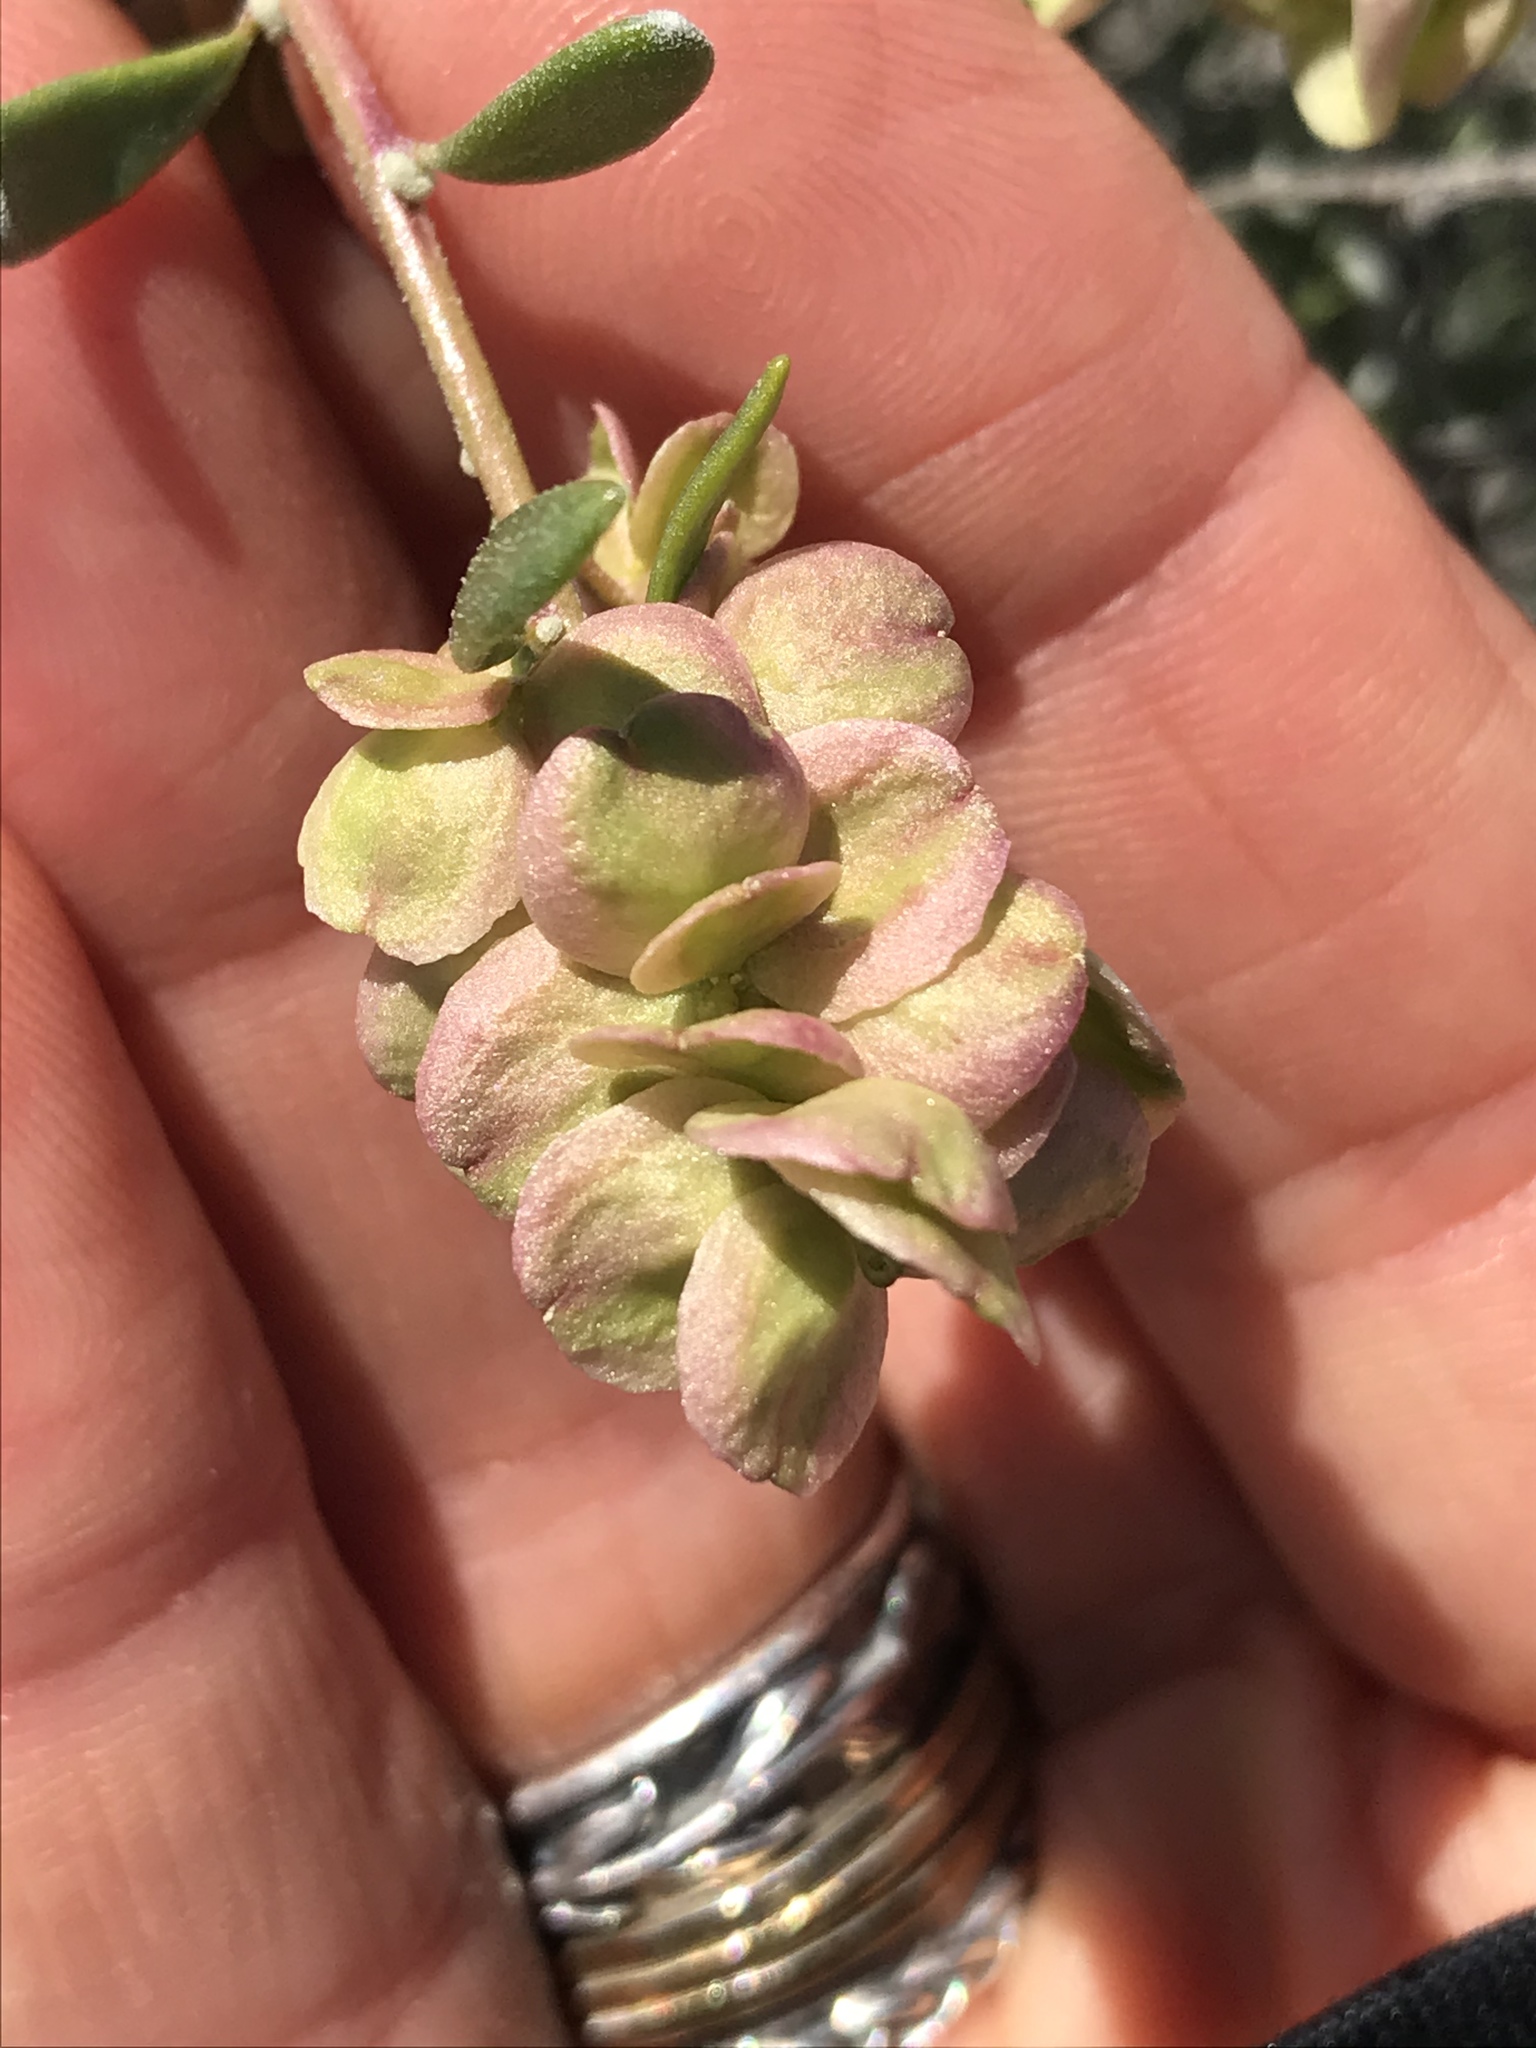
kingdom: Plantae
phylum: Tracheophyta
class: Magnoliopsida
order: Caryophyllales
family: Amaranthaceae
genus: Grayia
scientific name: Grayia spinosa
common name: Spiny hopsage
